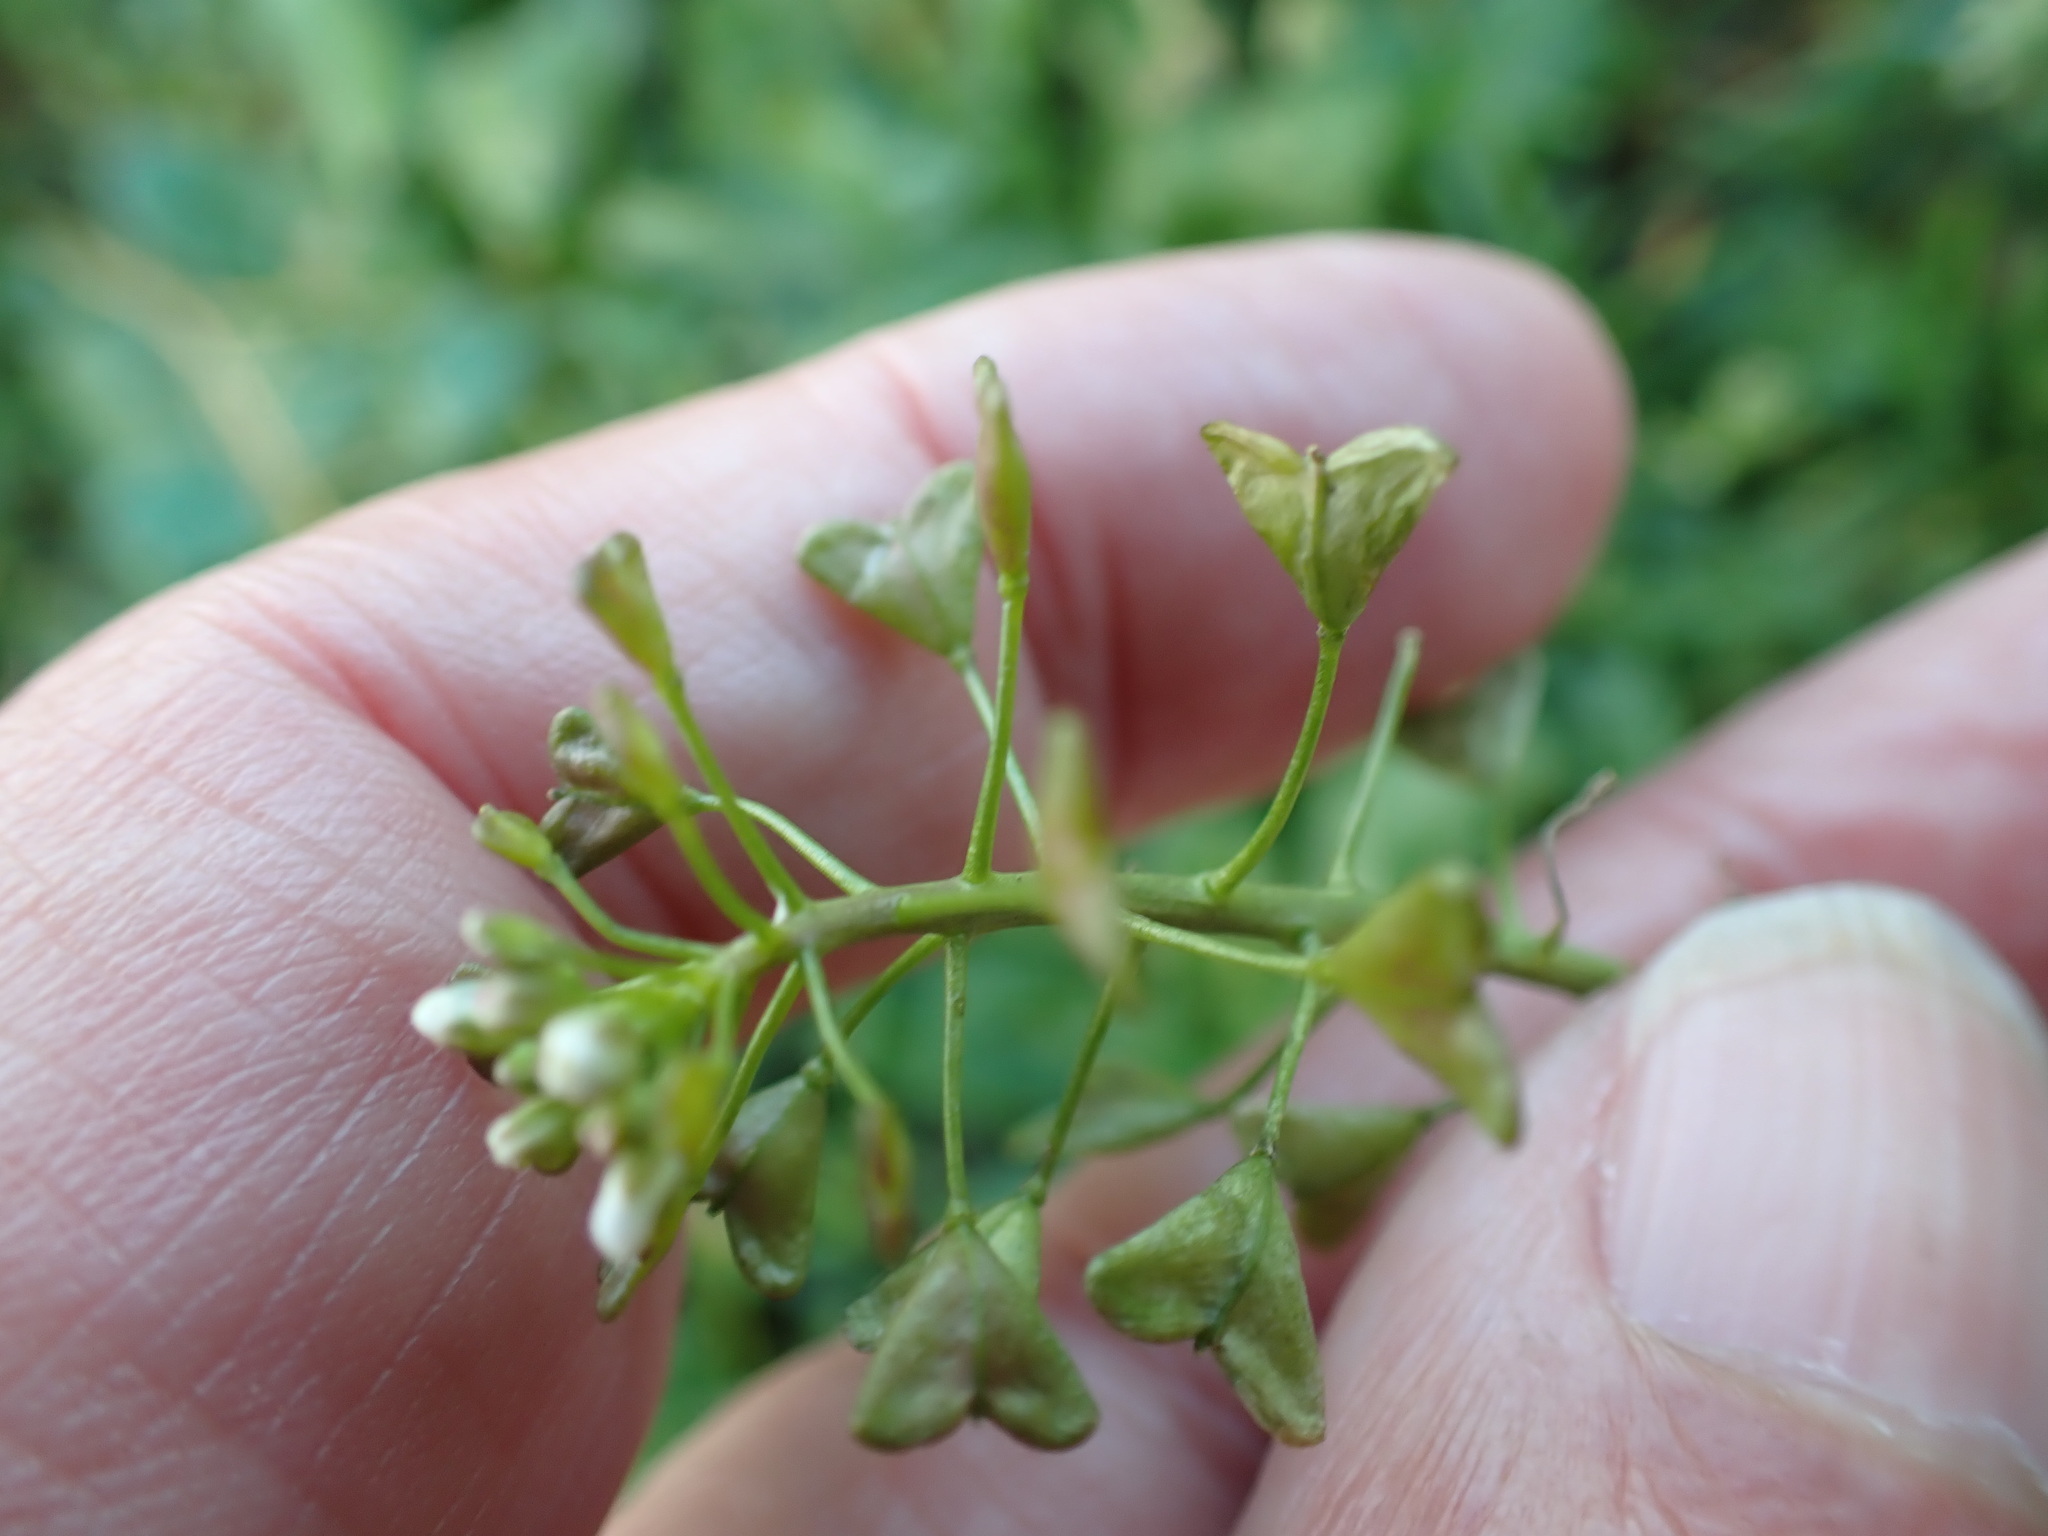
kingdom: Plantae
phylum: Tracheophyta
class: Magnoliopsida
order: Brassicales
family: Brassicaceae
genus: Capsella
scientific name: Capsella bursa-pastoris
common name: Shepherd's purse
